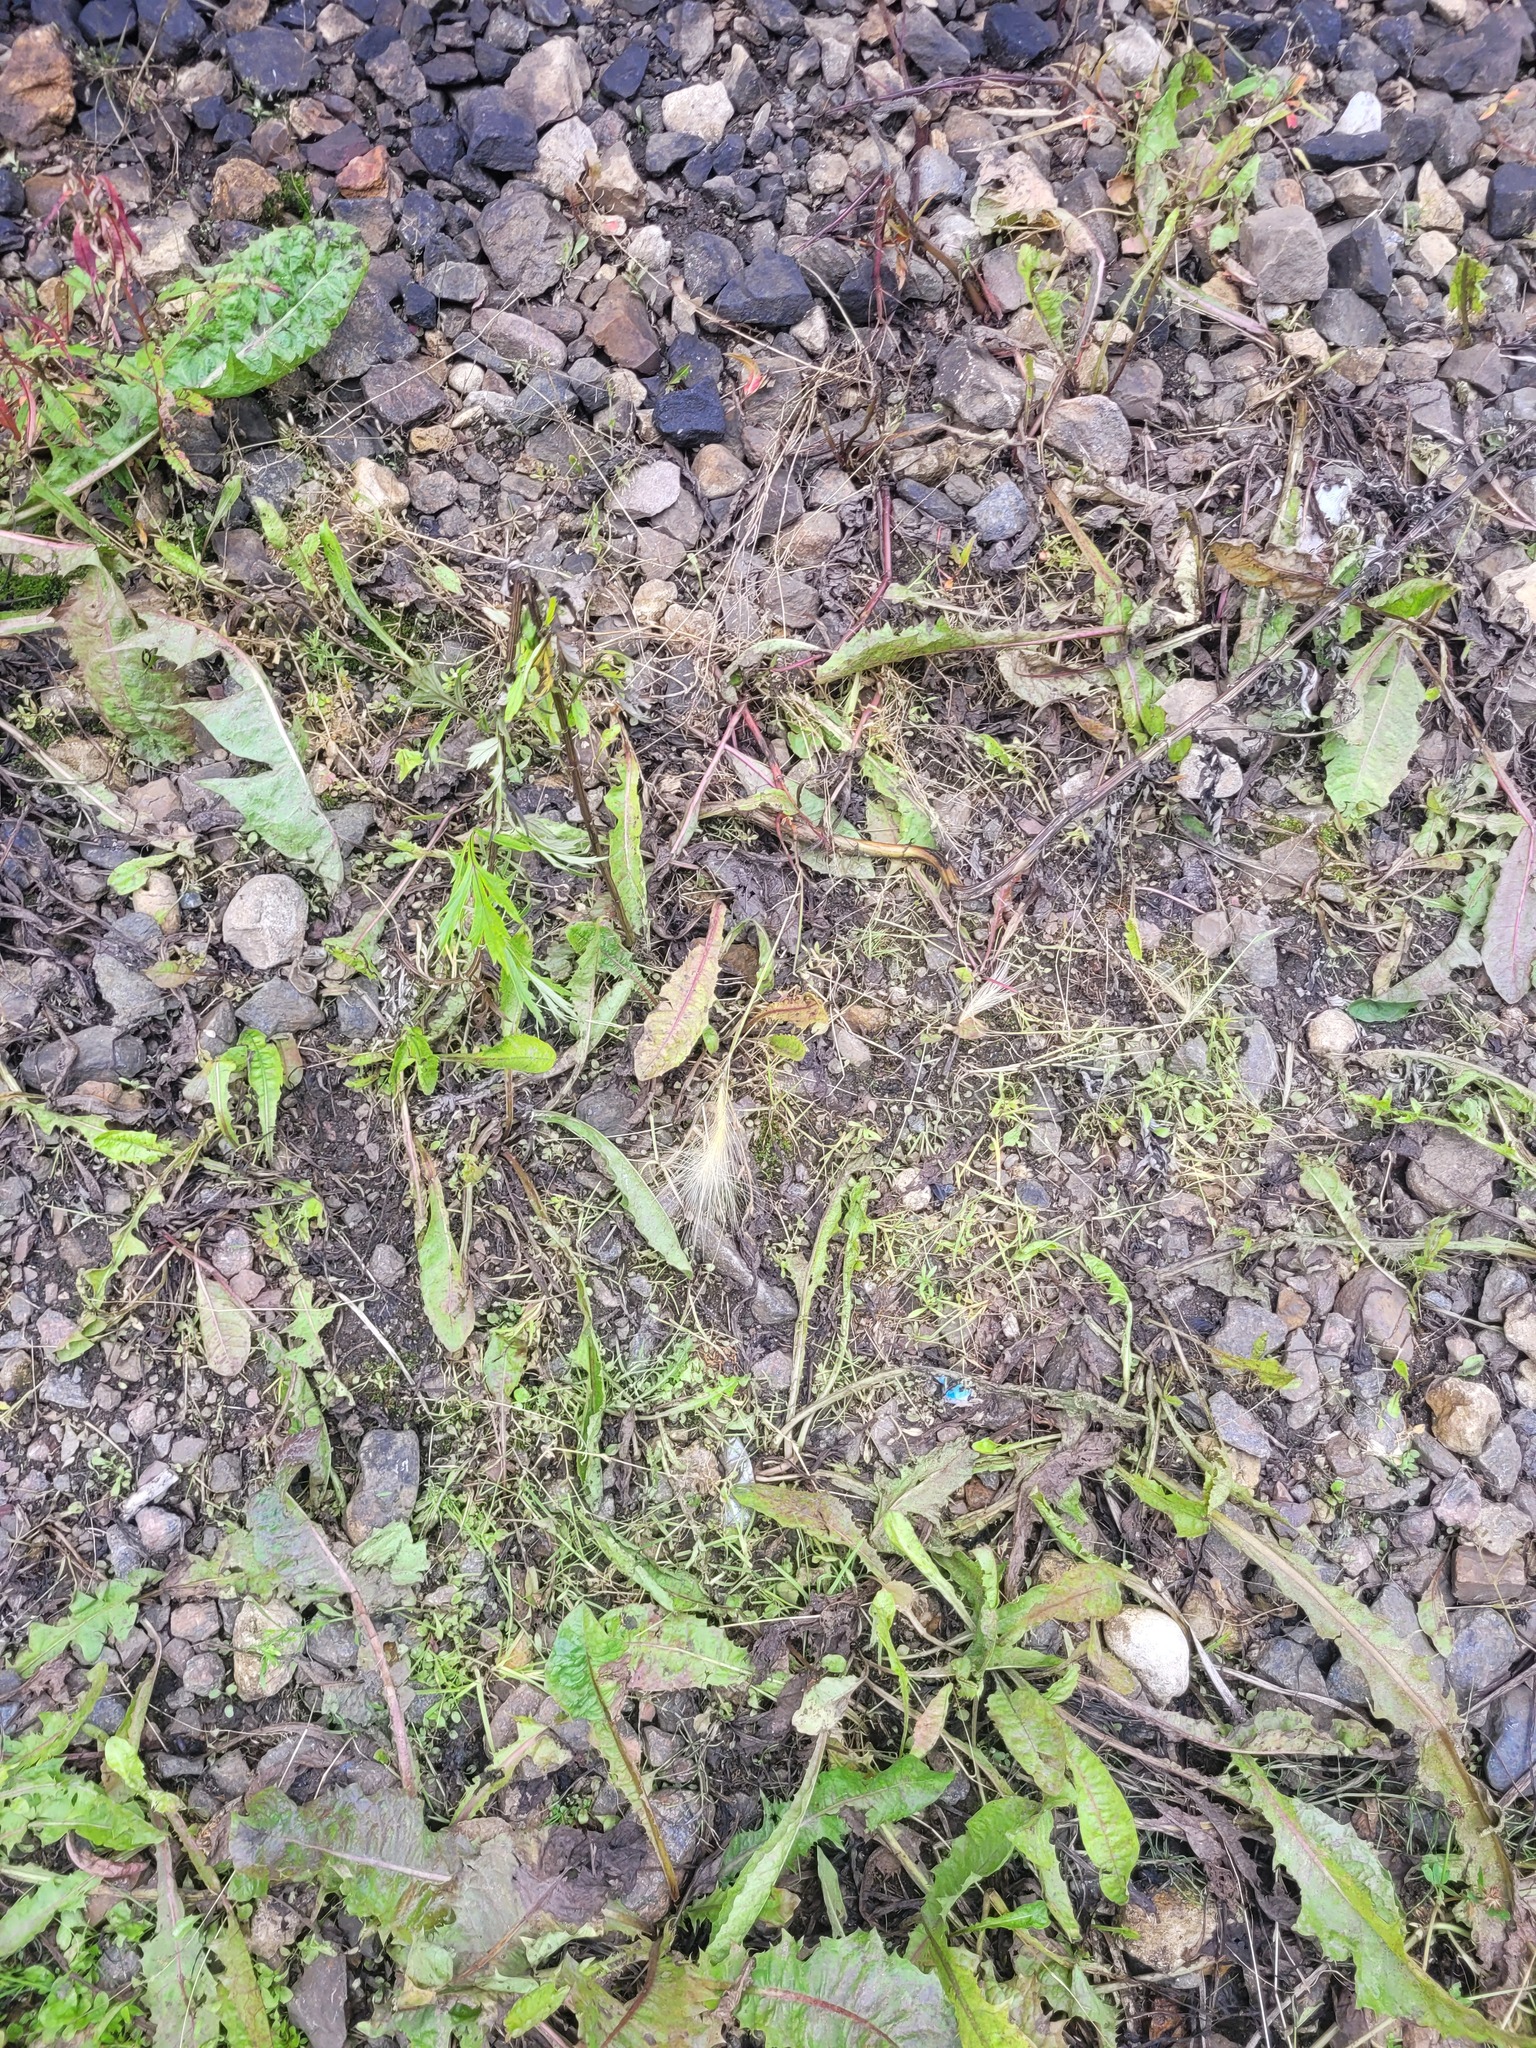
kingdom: Plantae
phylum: Tracheophyta
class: Liliopsida
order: Poales
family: Poaceae
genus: Hordeum
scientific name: Hordeum jubatum
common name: Foxtail barley
